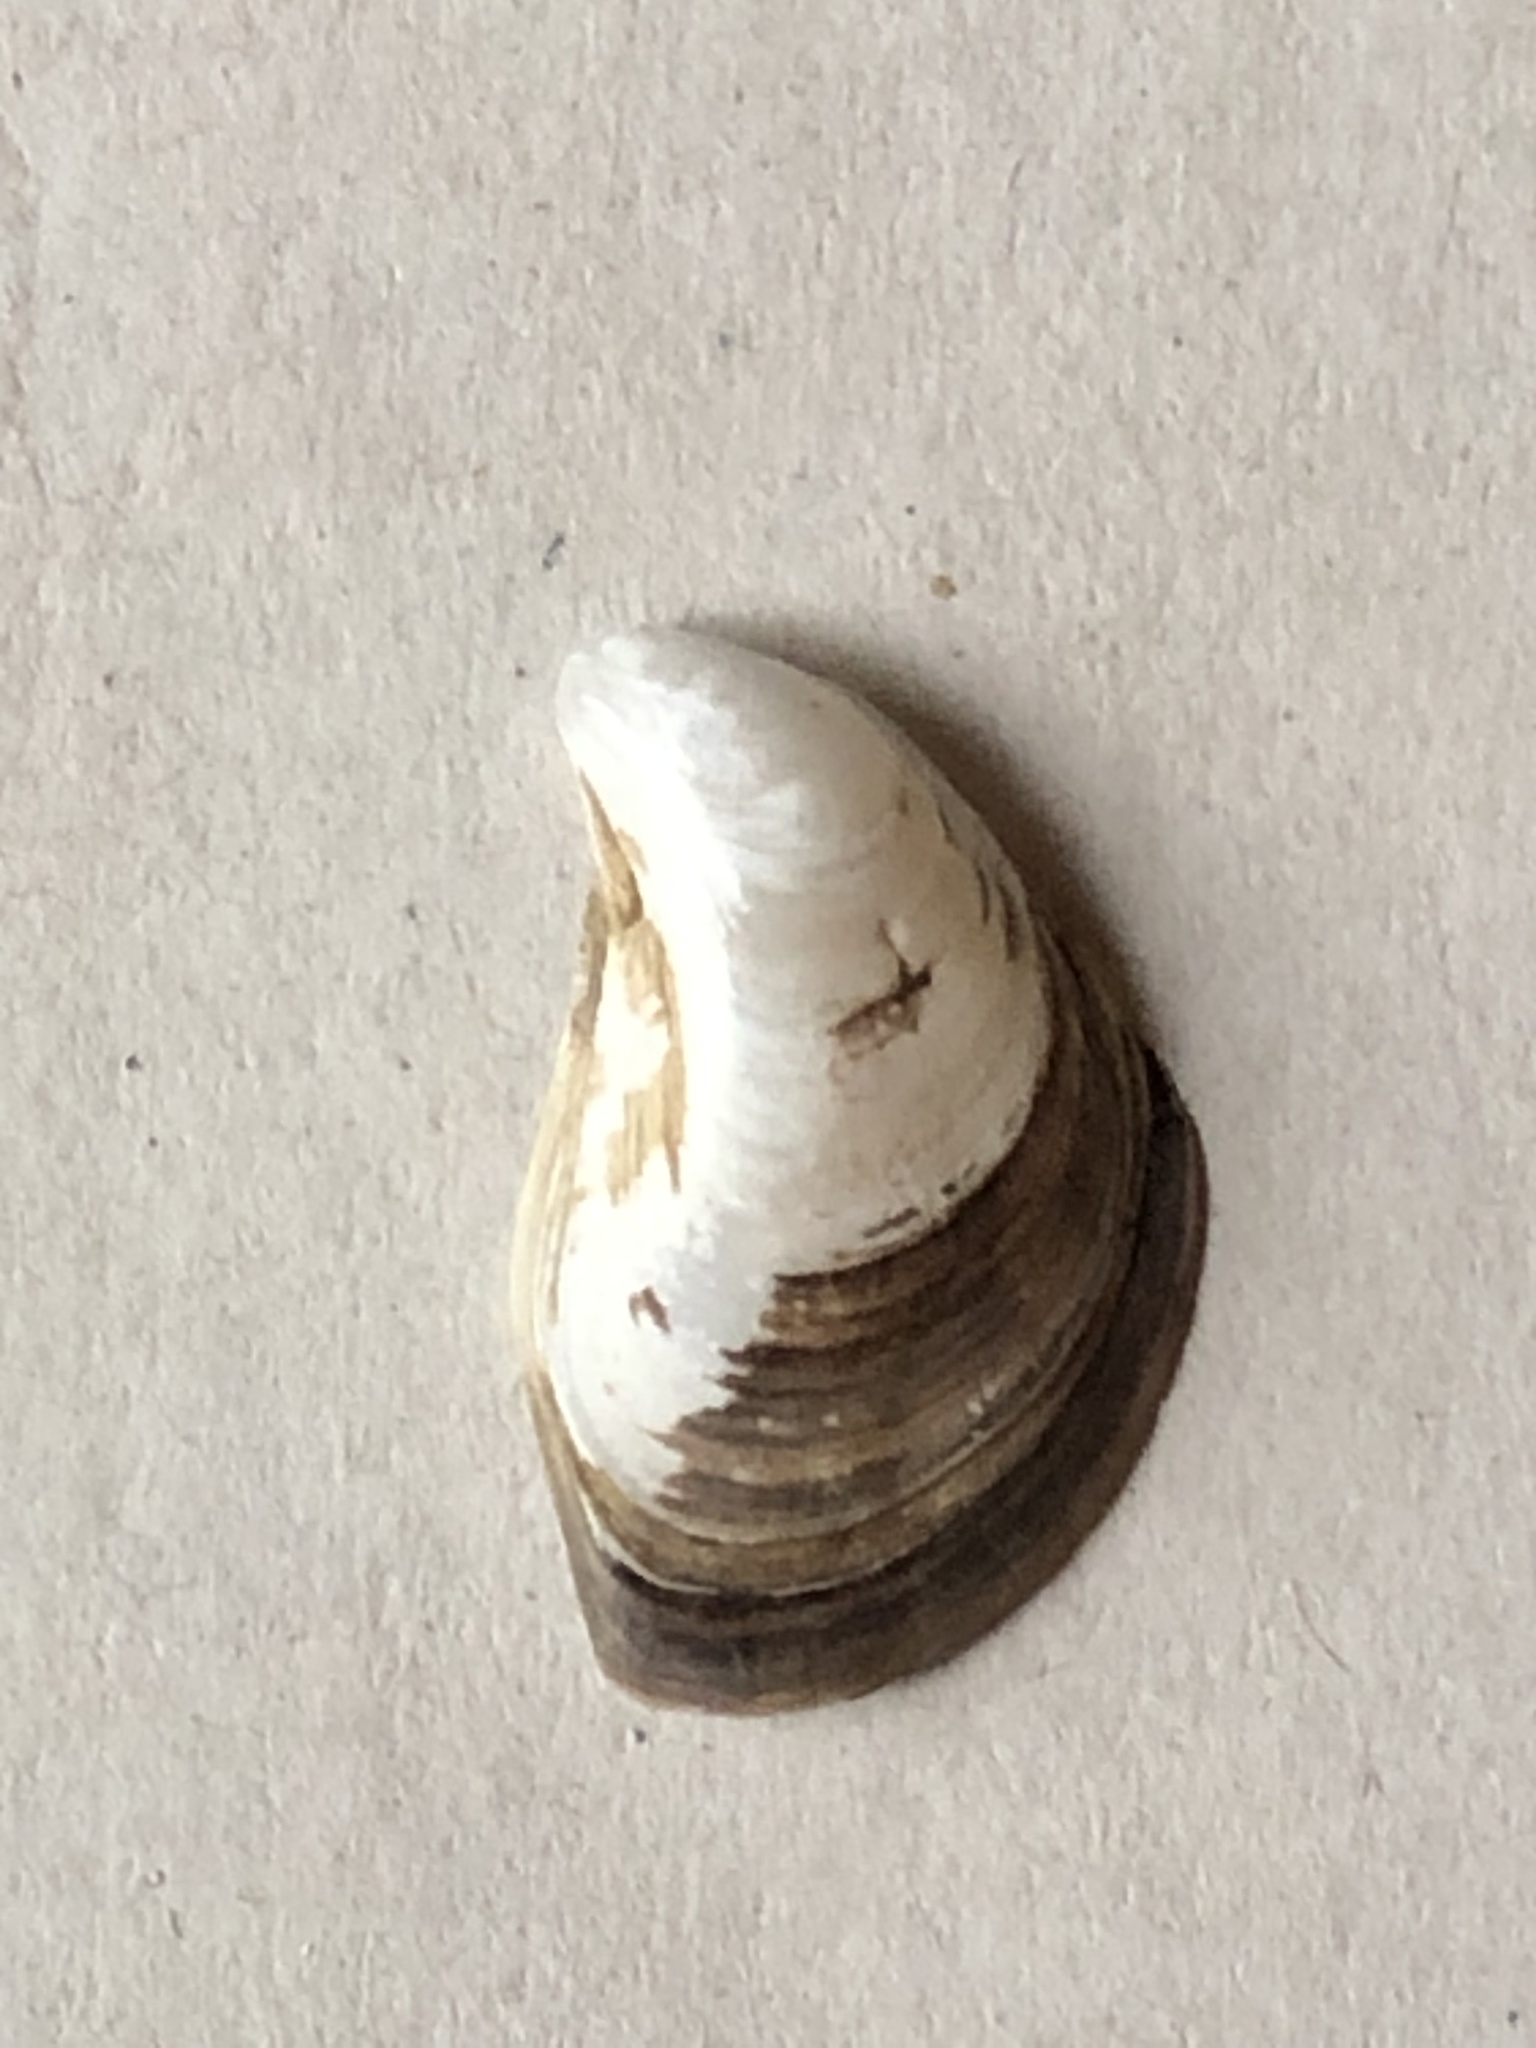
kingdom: Animalia
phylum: Mollusca
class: Bivalvia
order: Myida
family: Dreissenidae
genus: Dreissena
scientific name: Dreissena bugensis
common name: Quagga mussel
